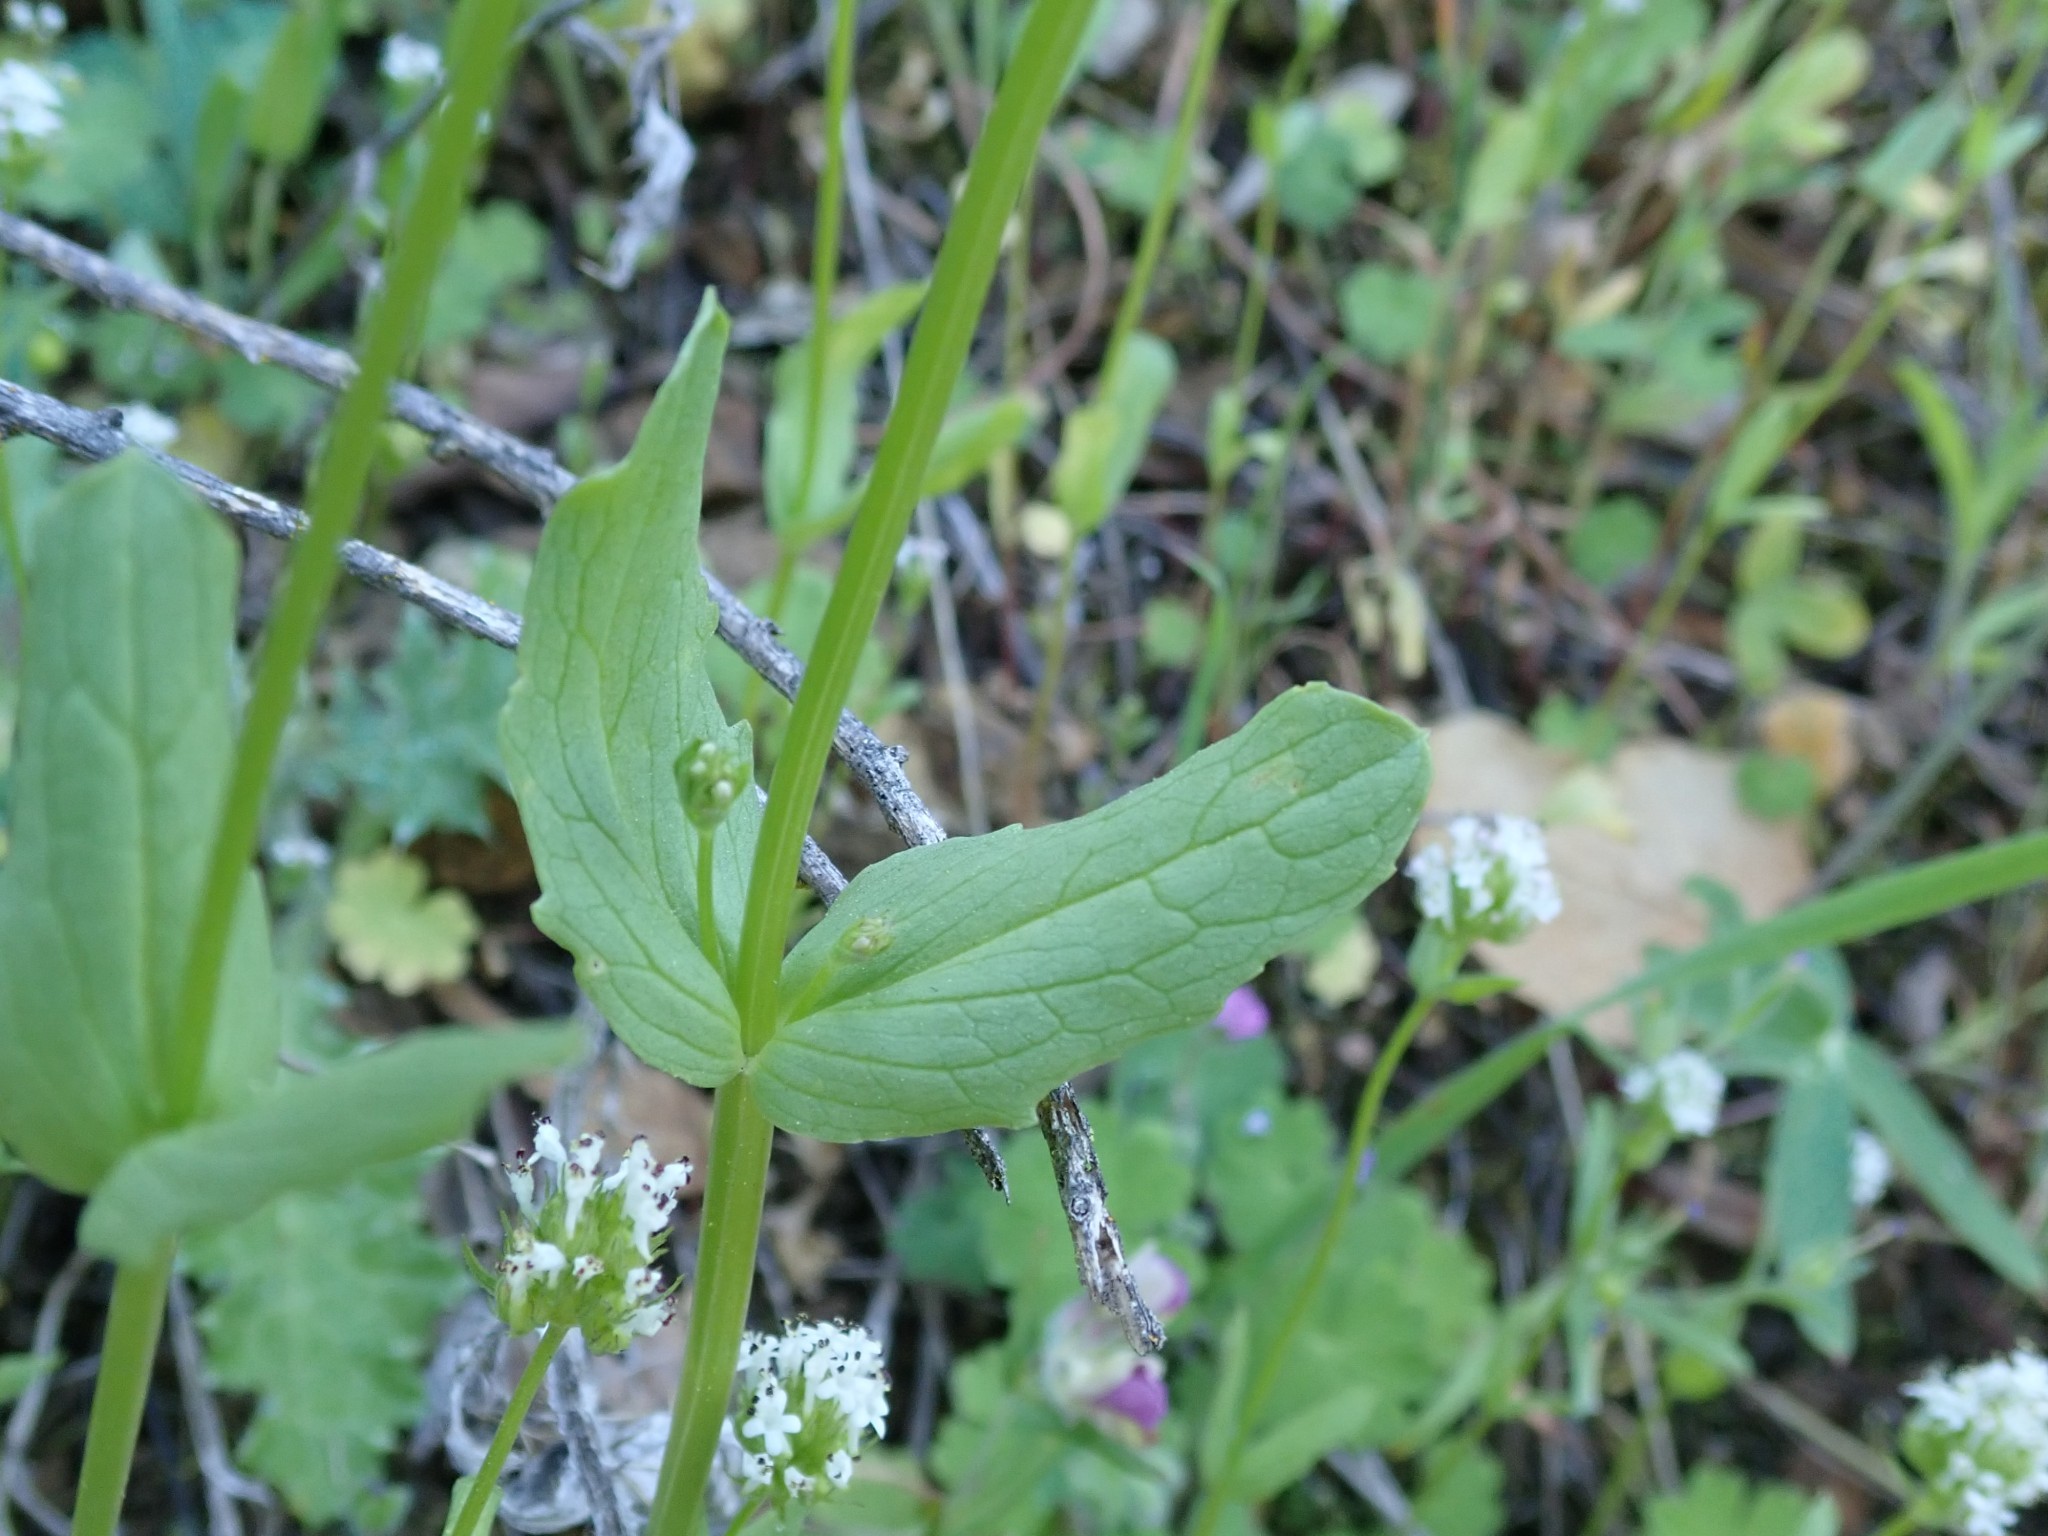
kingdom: Plantae
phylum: Tracheophyta
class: Magnoliopsida
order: Dipsacales
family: Caprifoliaceae
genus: Plectritis
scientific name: Plectritis macroptera
